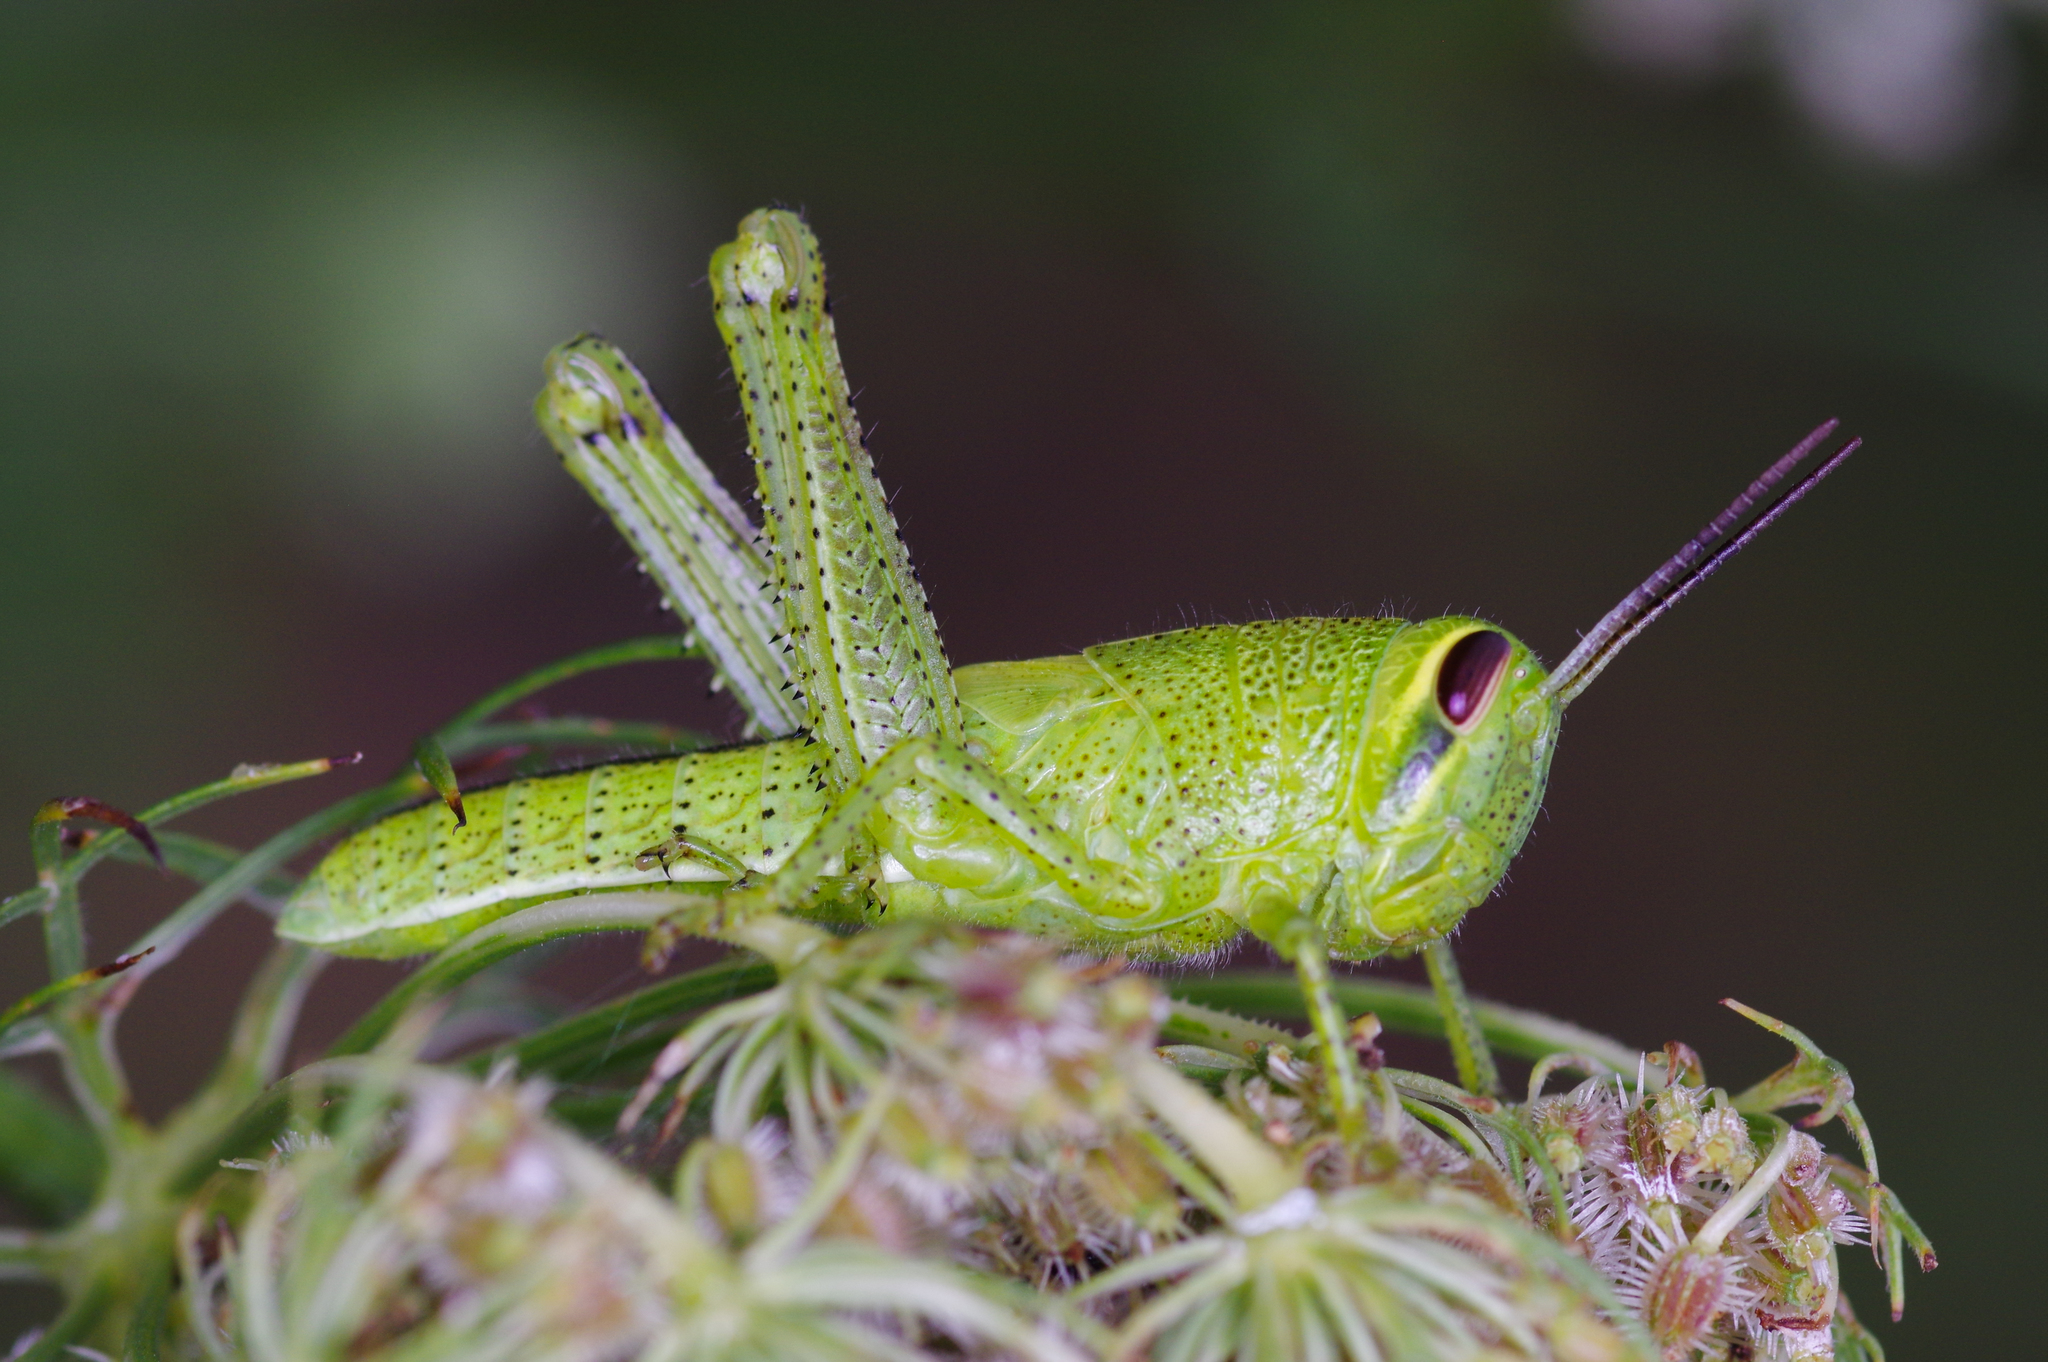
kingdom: Animalia
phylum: Arthropoda
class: Insecta
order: Orthoptera
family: Acrididae
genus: Schistocerca
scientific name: Schistocerca americana
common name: American bird locust
